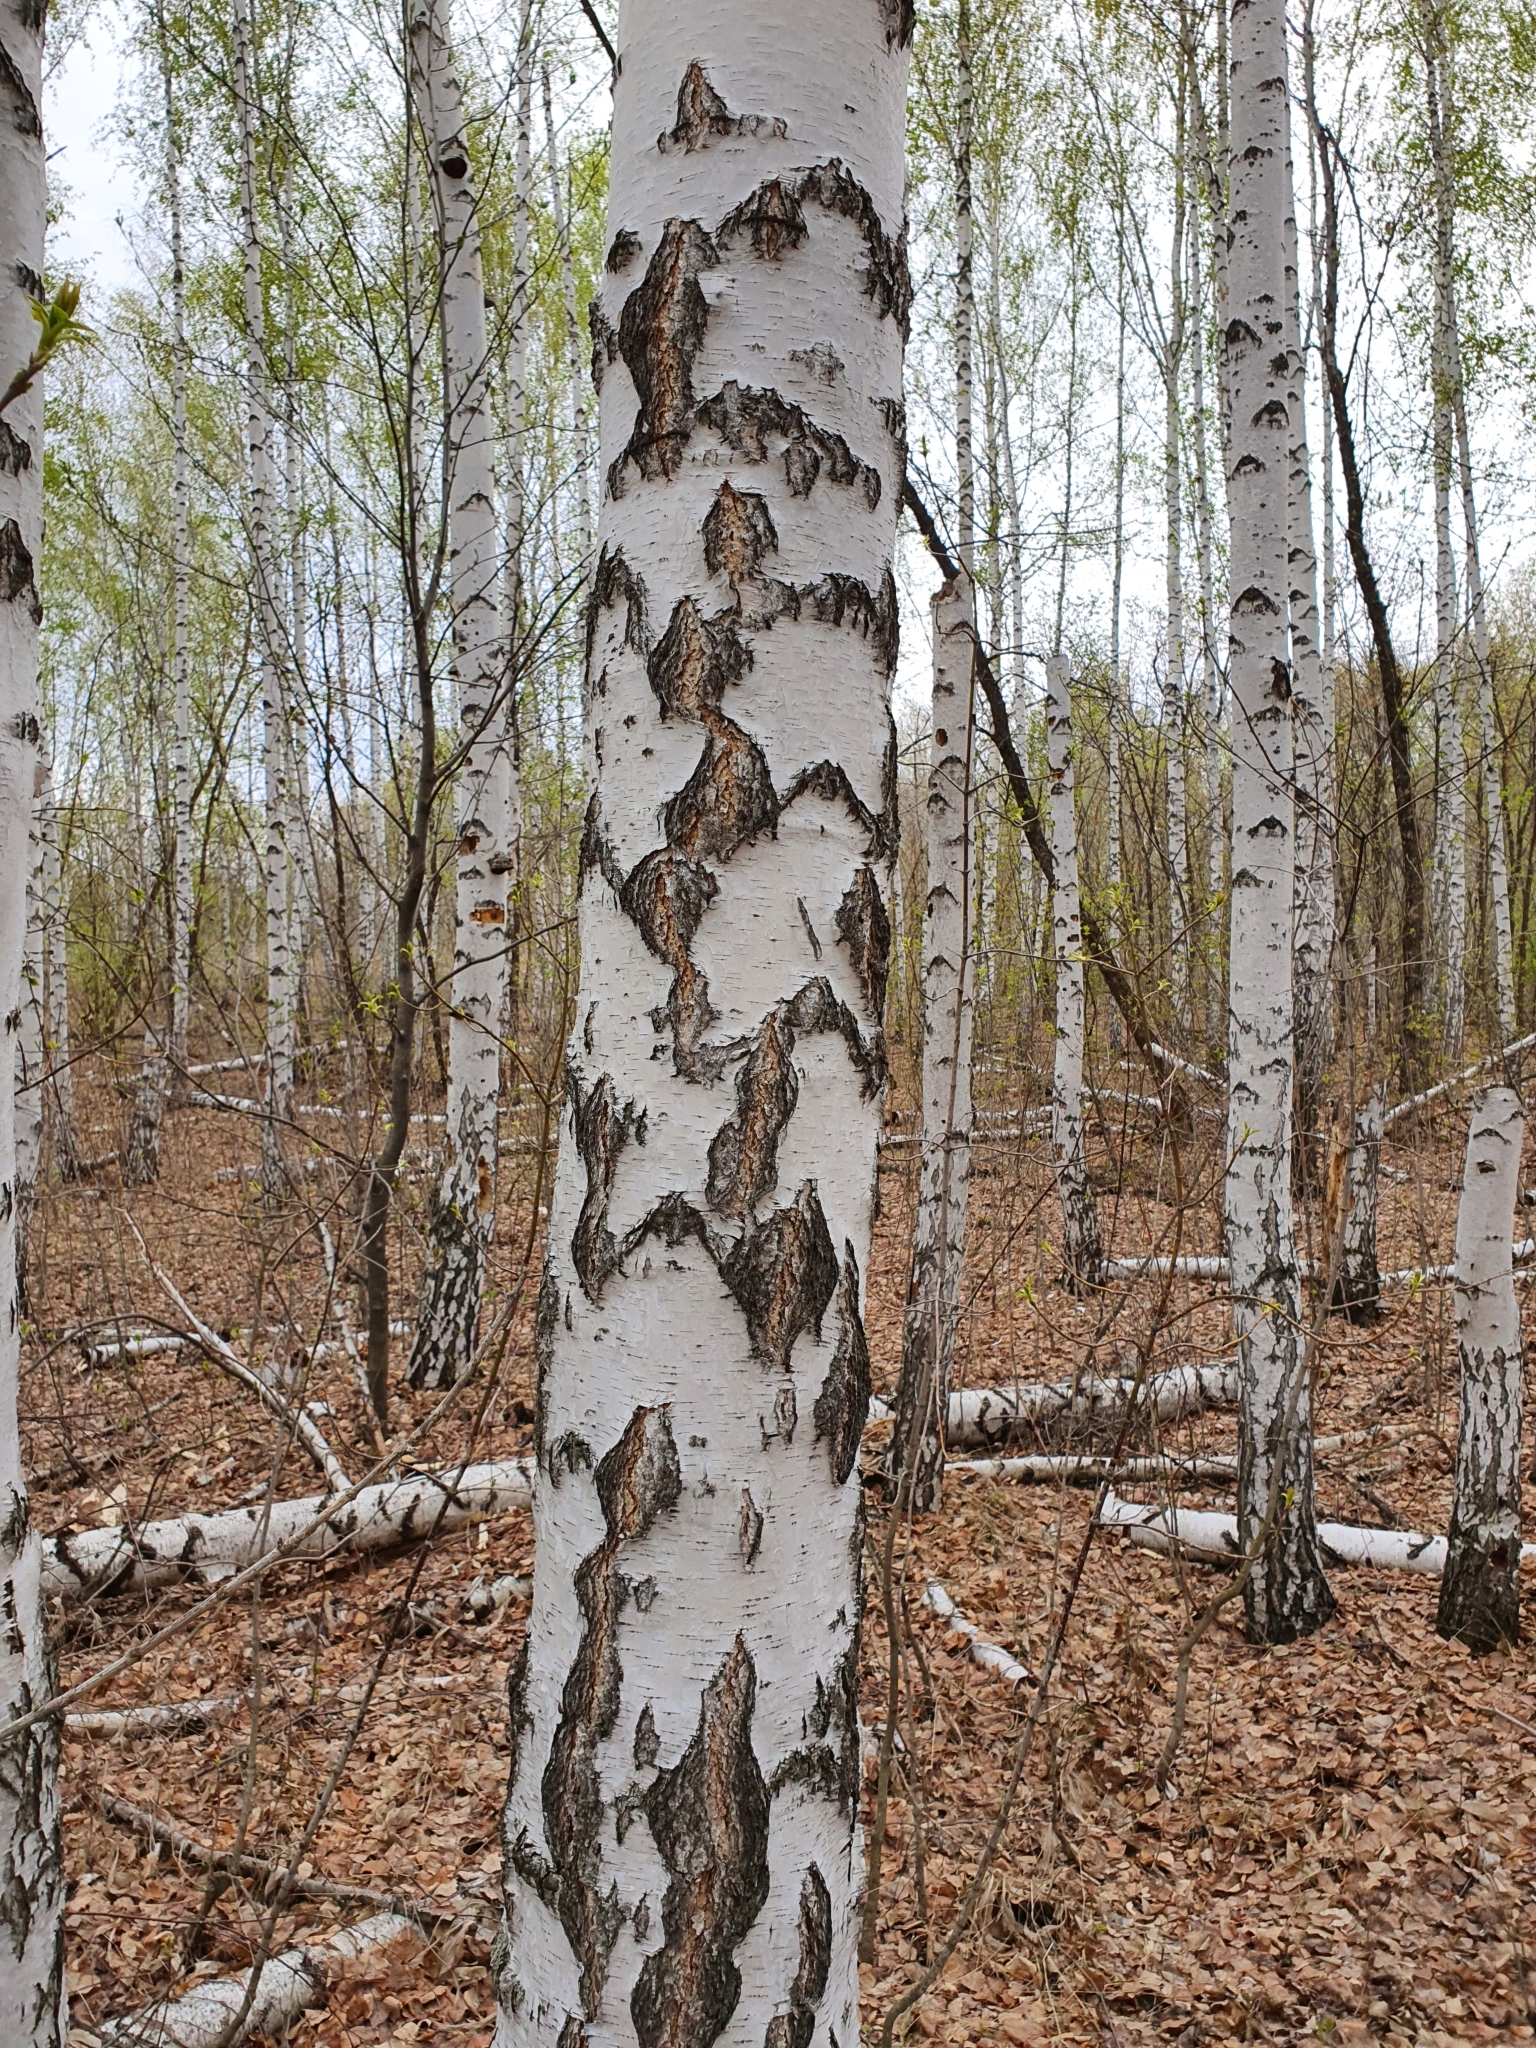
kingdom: Plantae
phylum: Tracheophyta
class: Magnoliopsida
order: Fagales
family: Betulaceae
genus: Betula
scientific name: Betula pendula
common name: Silver birch
